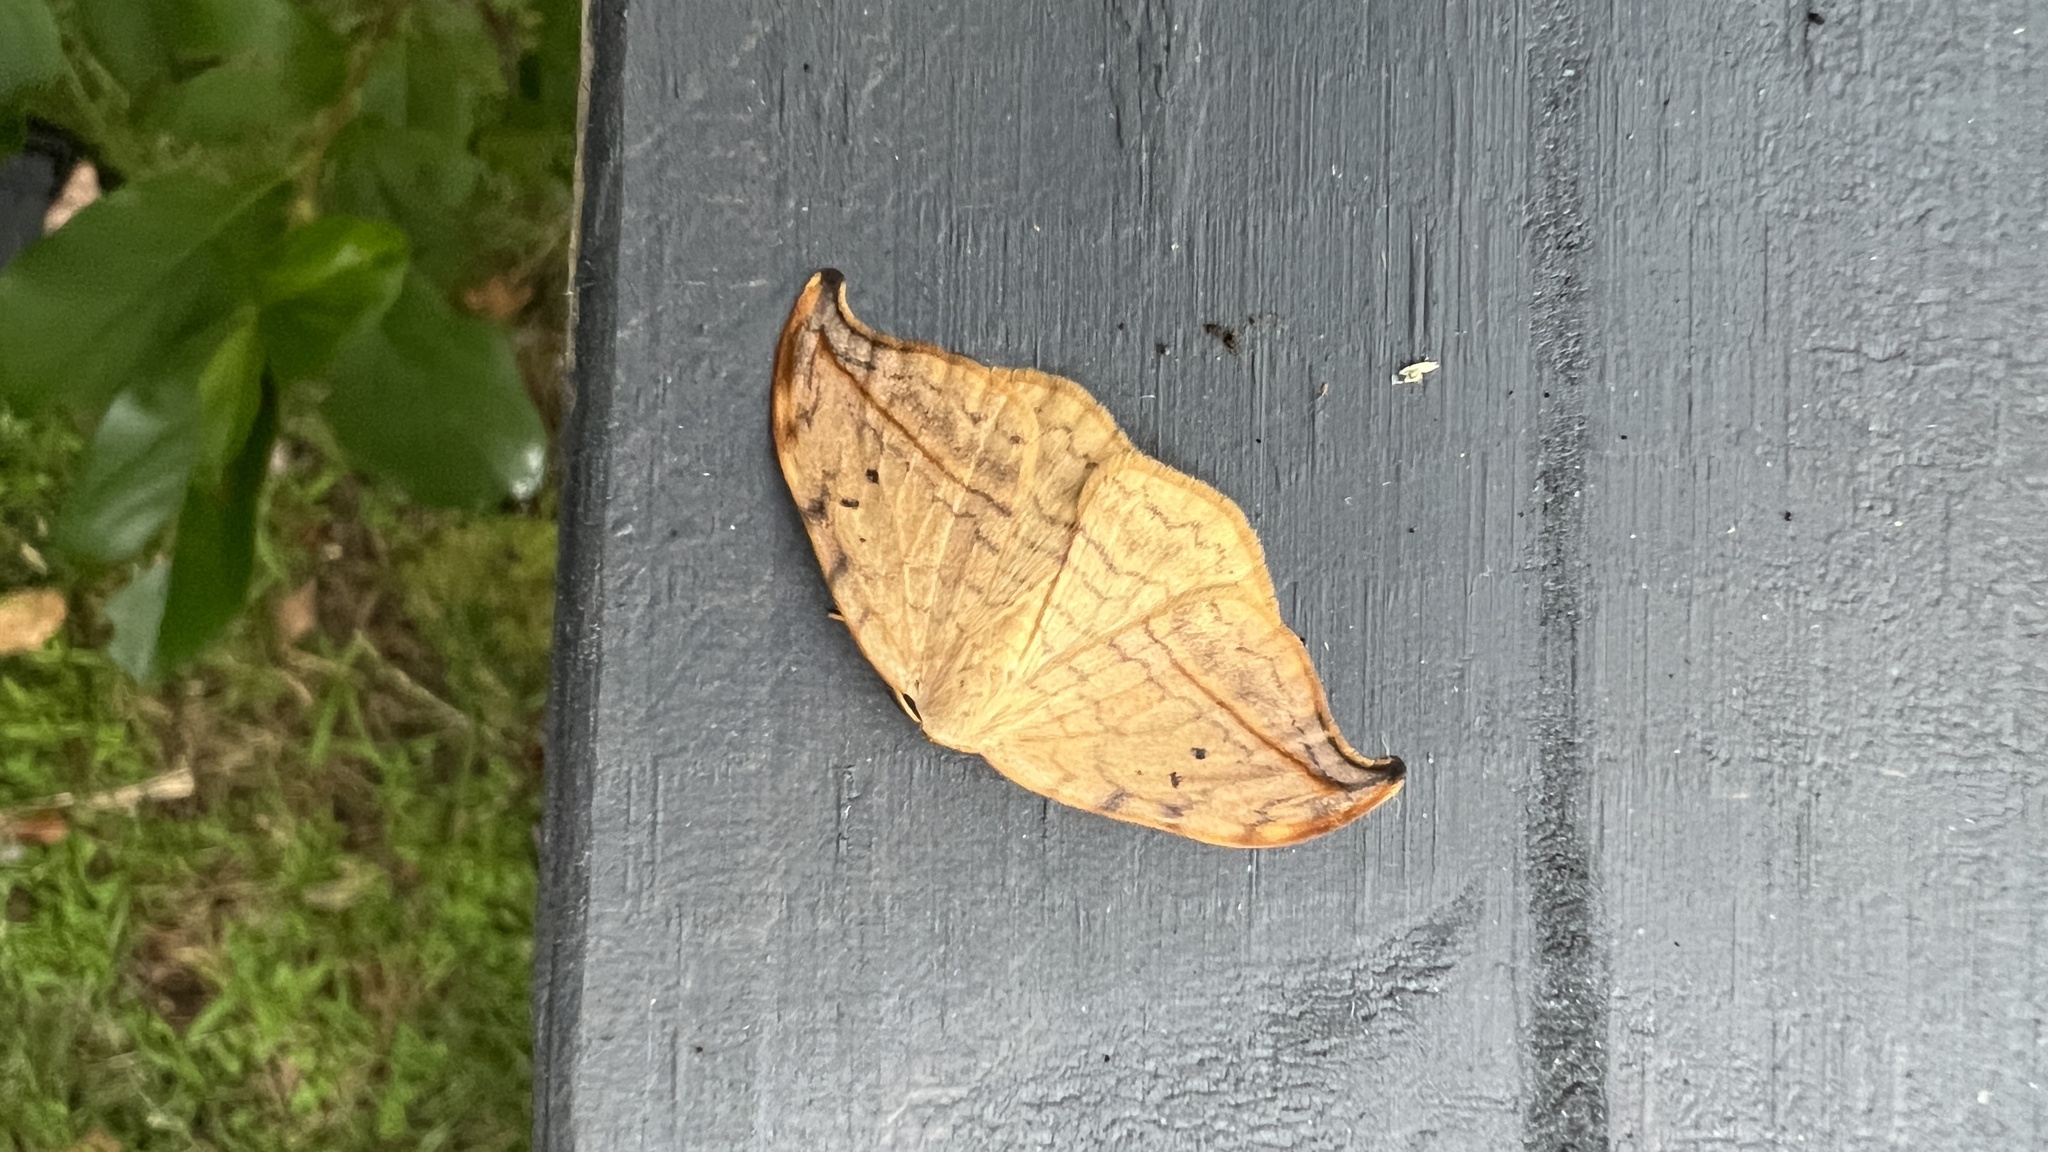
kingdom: Animalia
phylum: Arthropoda
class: Insecta
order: Lepidoptera
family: Drepanidae
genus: Drepana
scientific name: Drepana arcuata
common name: Arched hooktip moth
